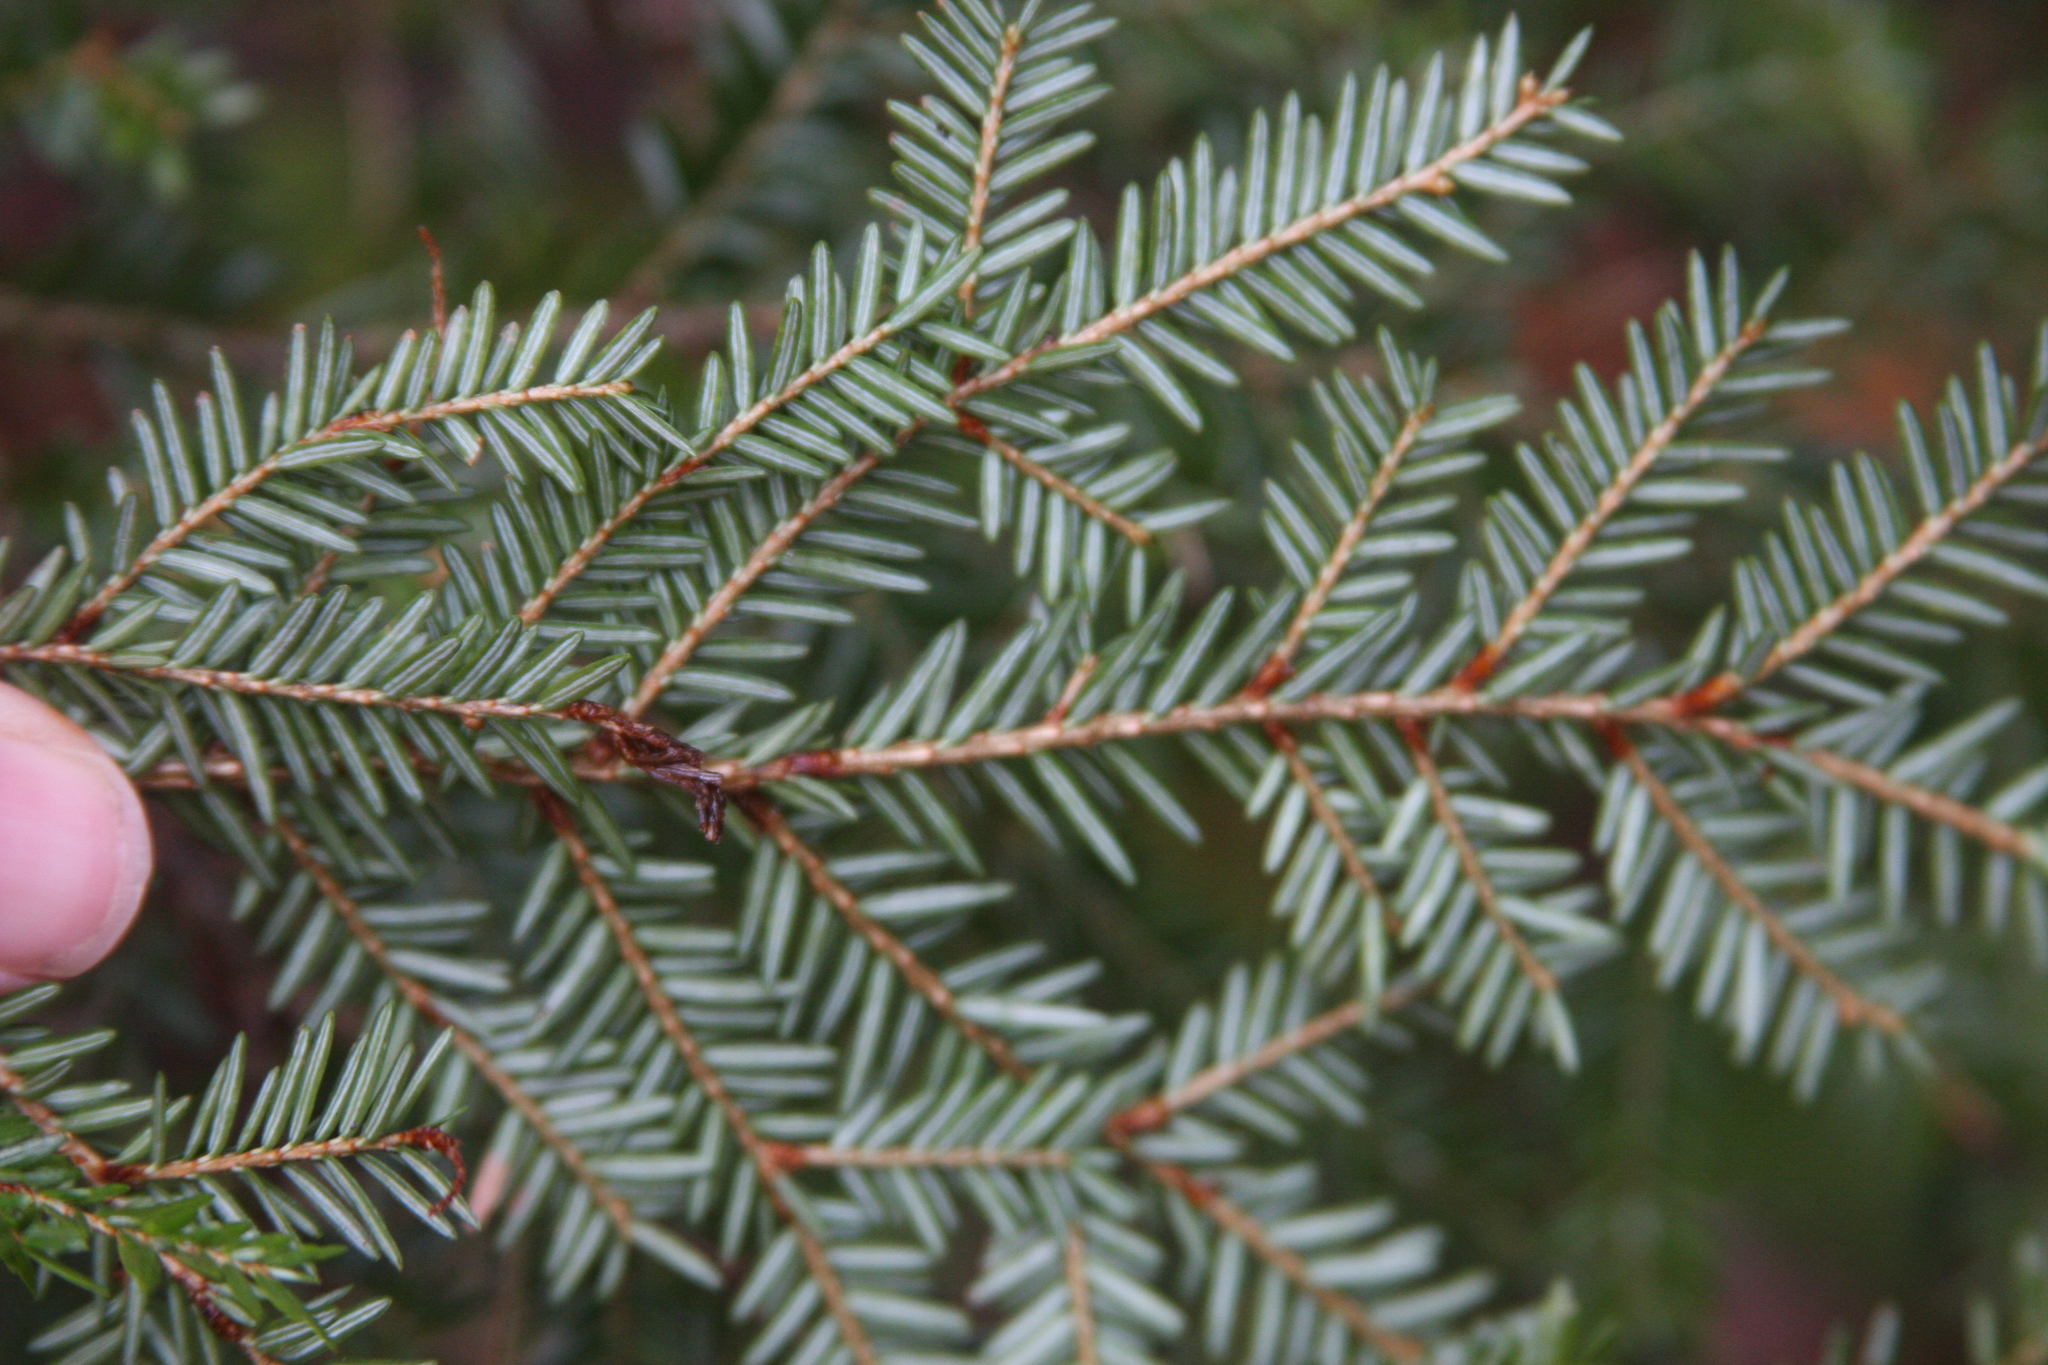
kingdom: Plantae
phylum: Tracheophyta
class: Pinopsida
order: Pinales
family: Pinaceae
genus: Tsuga
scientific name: Tsuga canadensis
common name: Eastern hemlock
